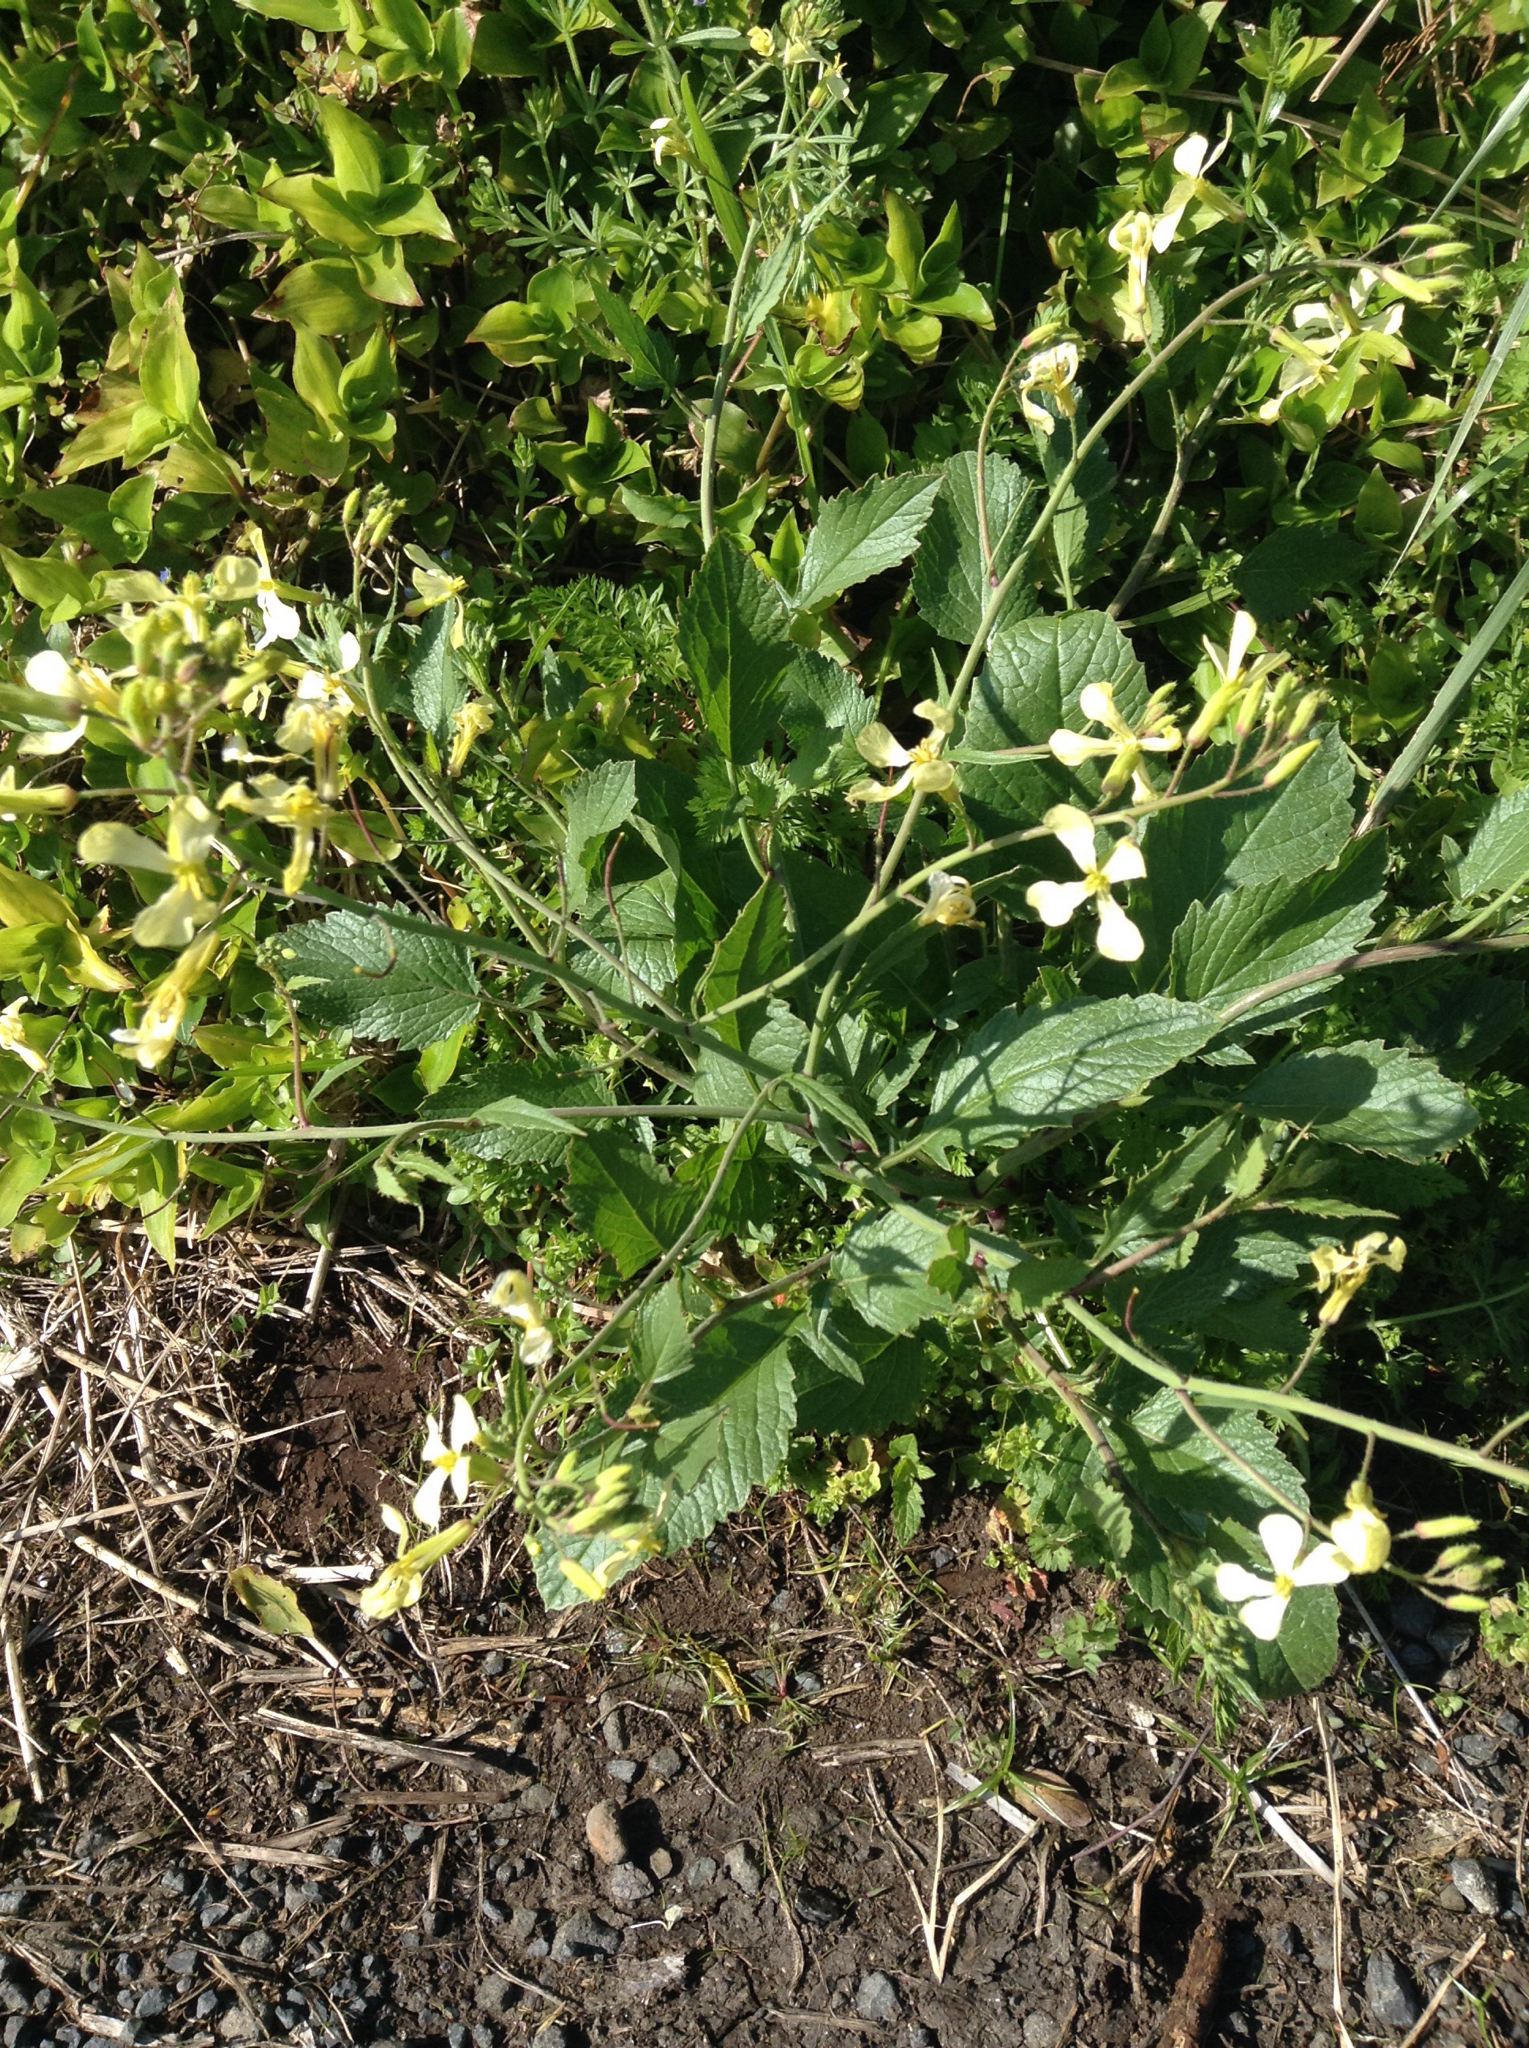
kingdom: Plantae
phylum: Tracheophyta
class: Magnoliopsida
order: Brassicales
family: Brassicaceae
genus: Raphanus
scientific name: Raphanus raphanistrum
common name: Wild radish
